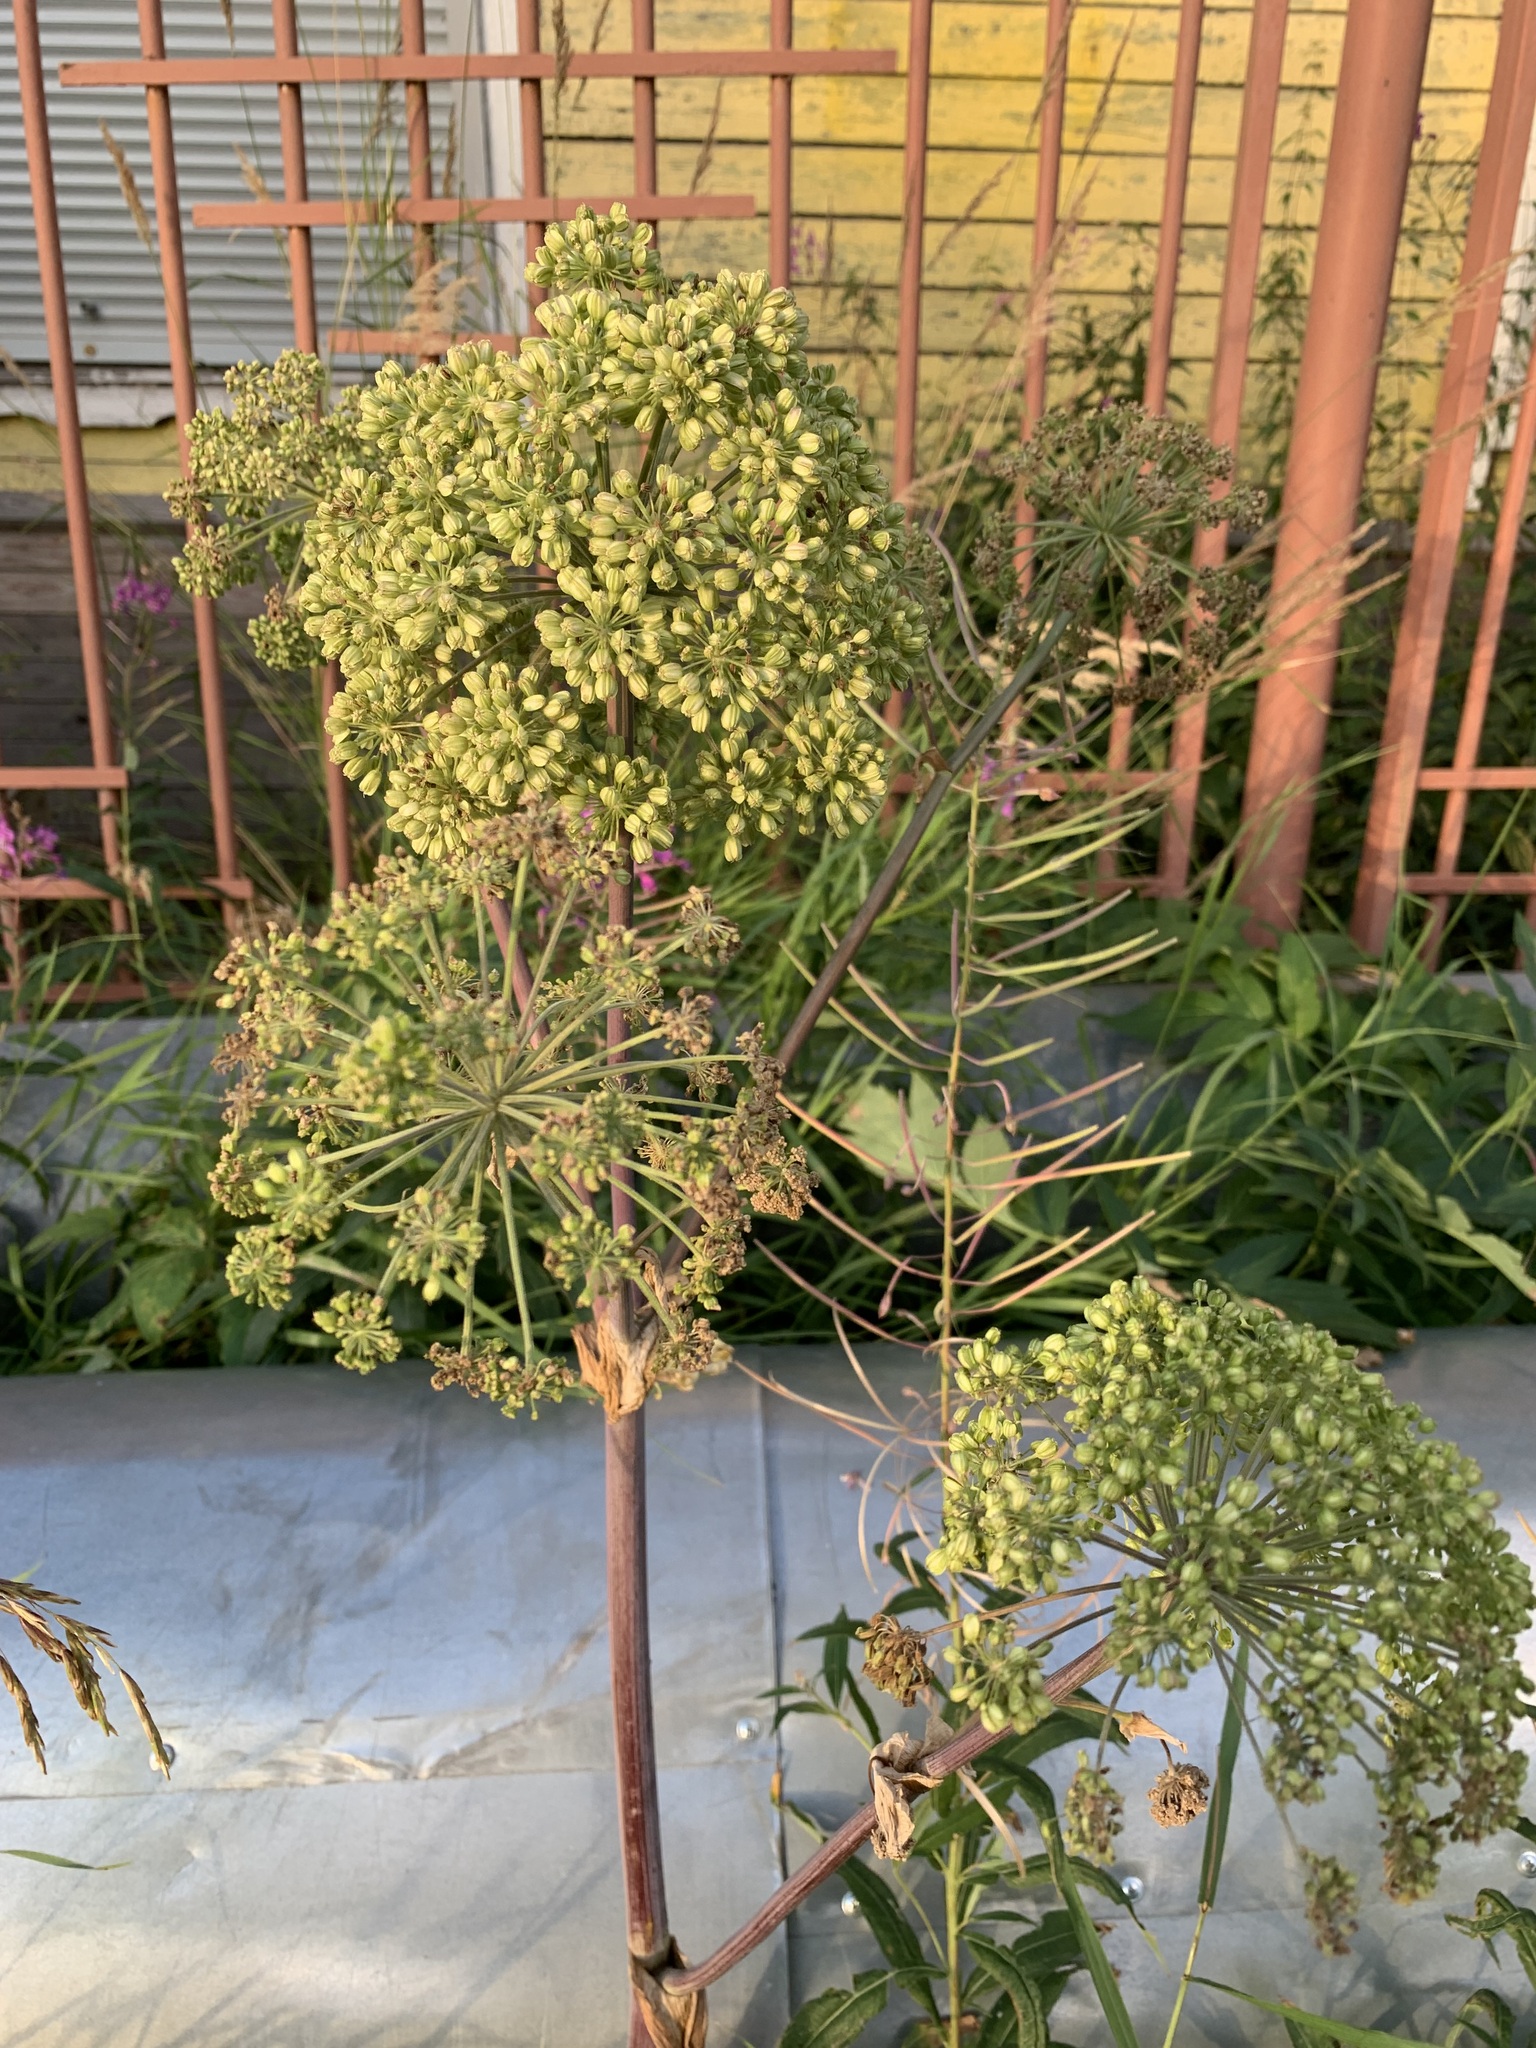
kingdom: Plantae
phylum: Tracheophyta
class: Magnoliopsida
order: Apiales
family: Apiaceae
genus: Angelica
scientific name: Angelica decurrens
